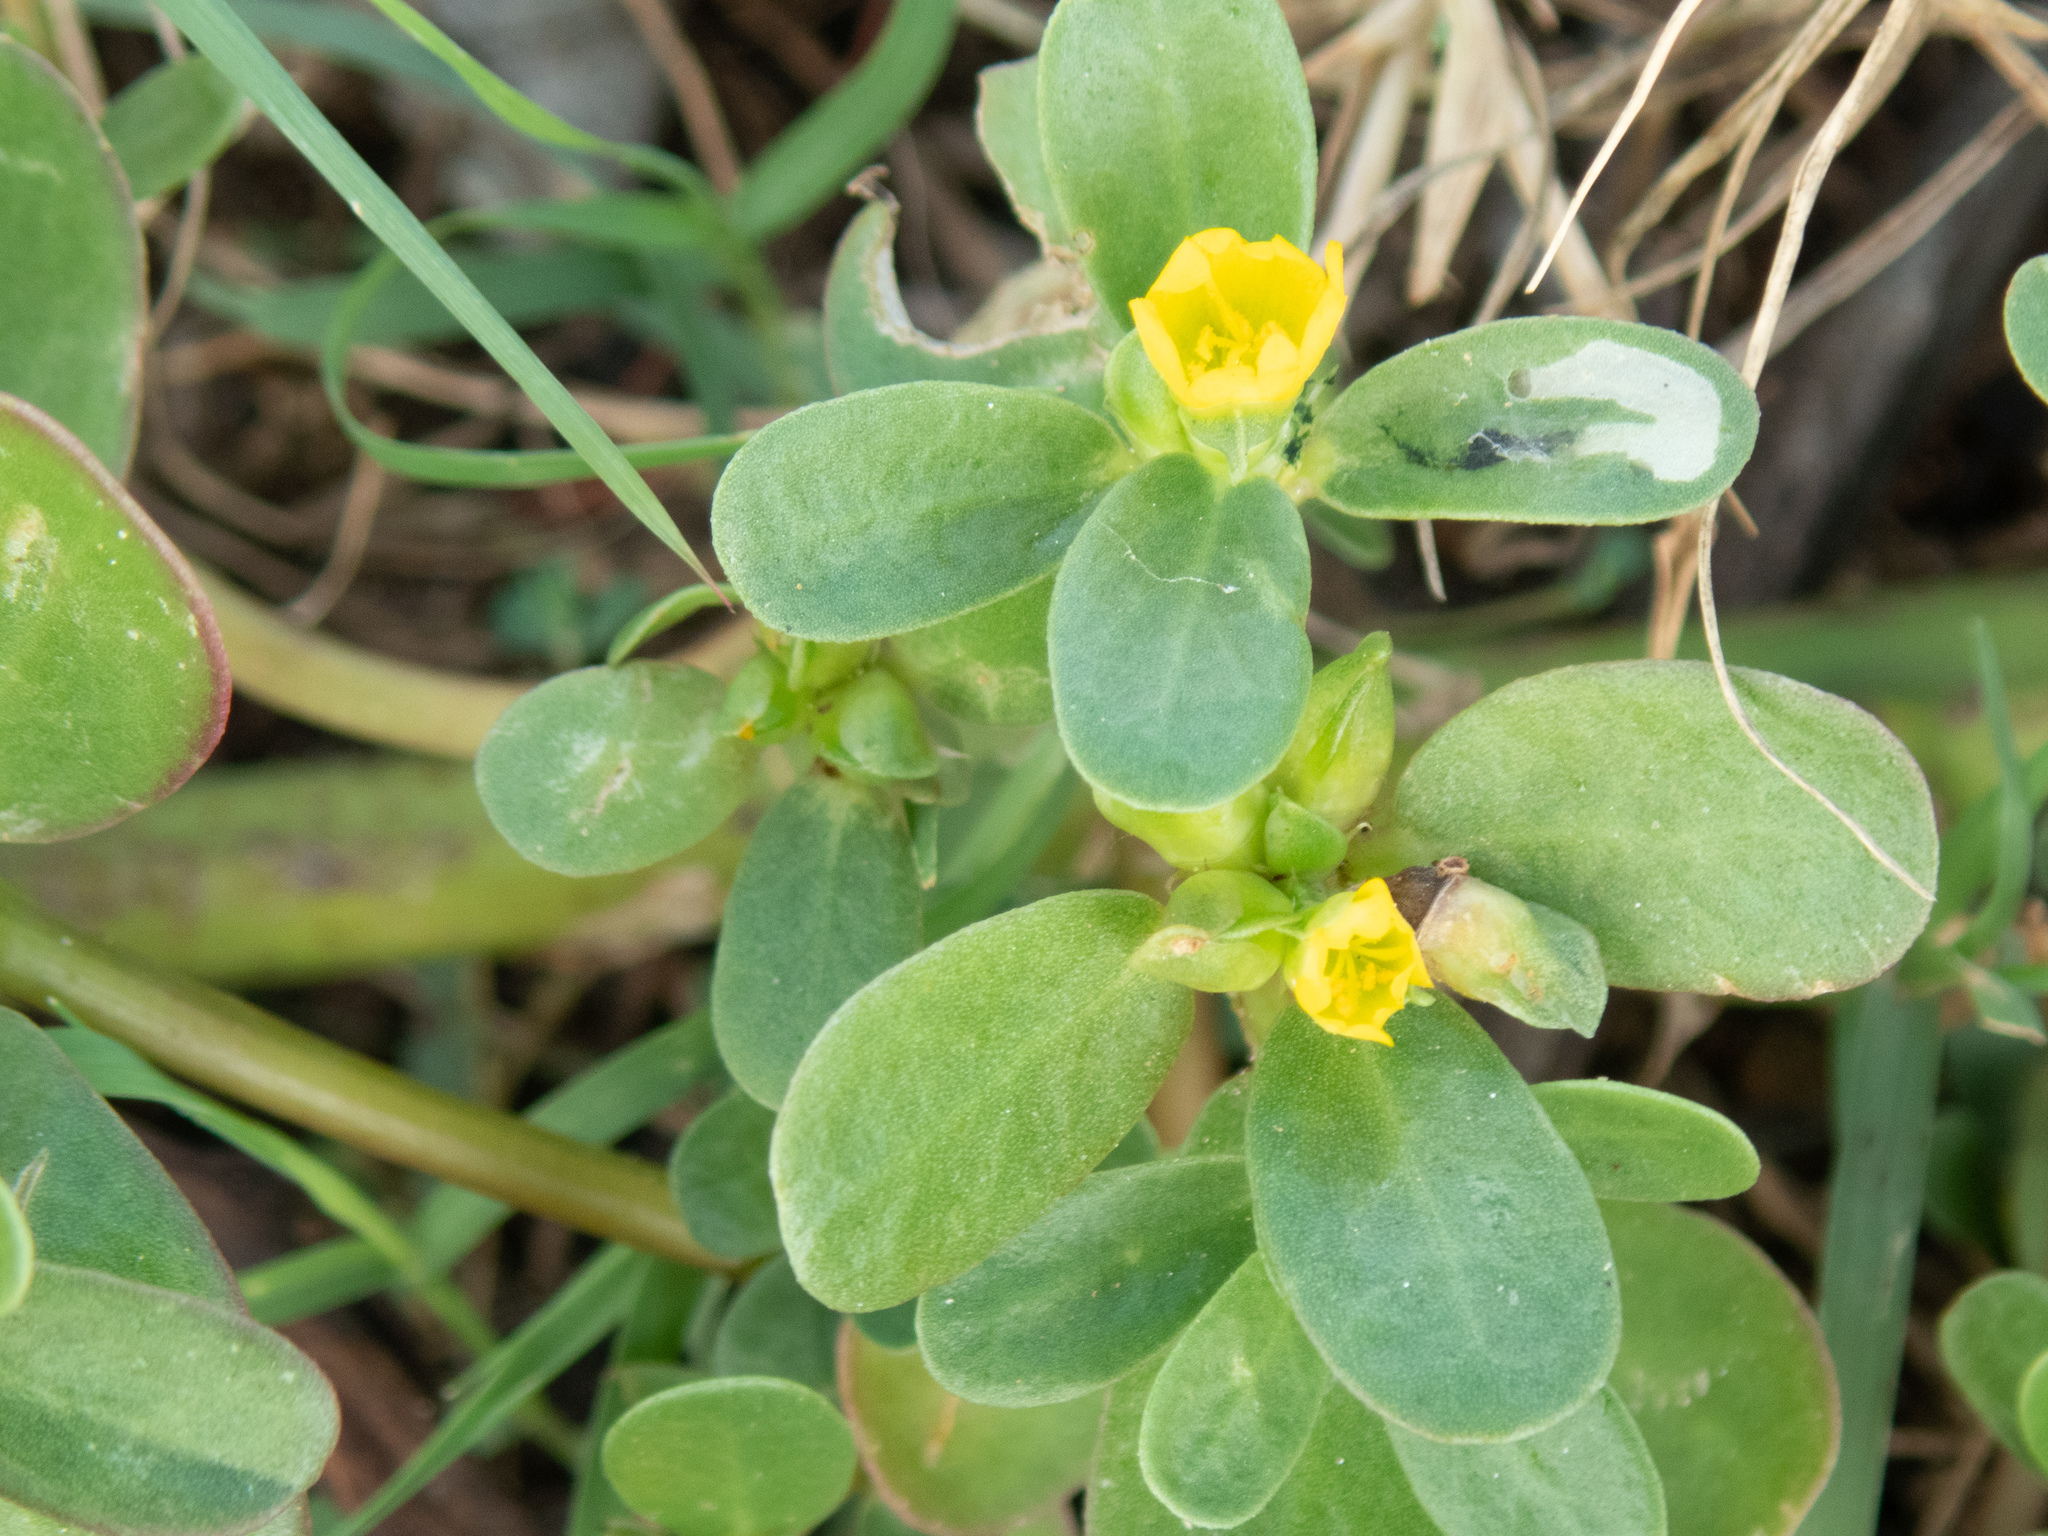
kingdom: Plantae
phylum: Tracheophyta
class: Magnoliopsida
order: Caryophyllales
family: Portulacaceae
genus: Portulaca
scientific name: Portulaca oleracea
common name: Common purslane
